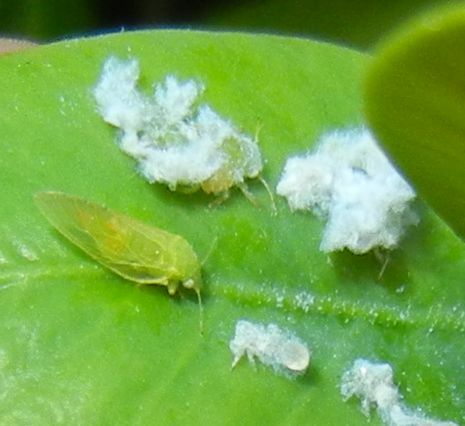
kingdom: Animalia
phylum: Arthropoda
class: Insecta
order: Hemiptera
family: Psyllidae
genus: Spanioneura
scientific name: Spanioneura fonscolombii
